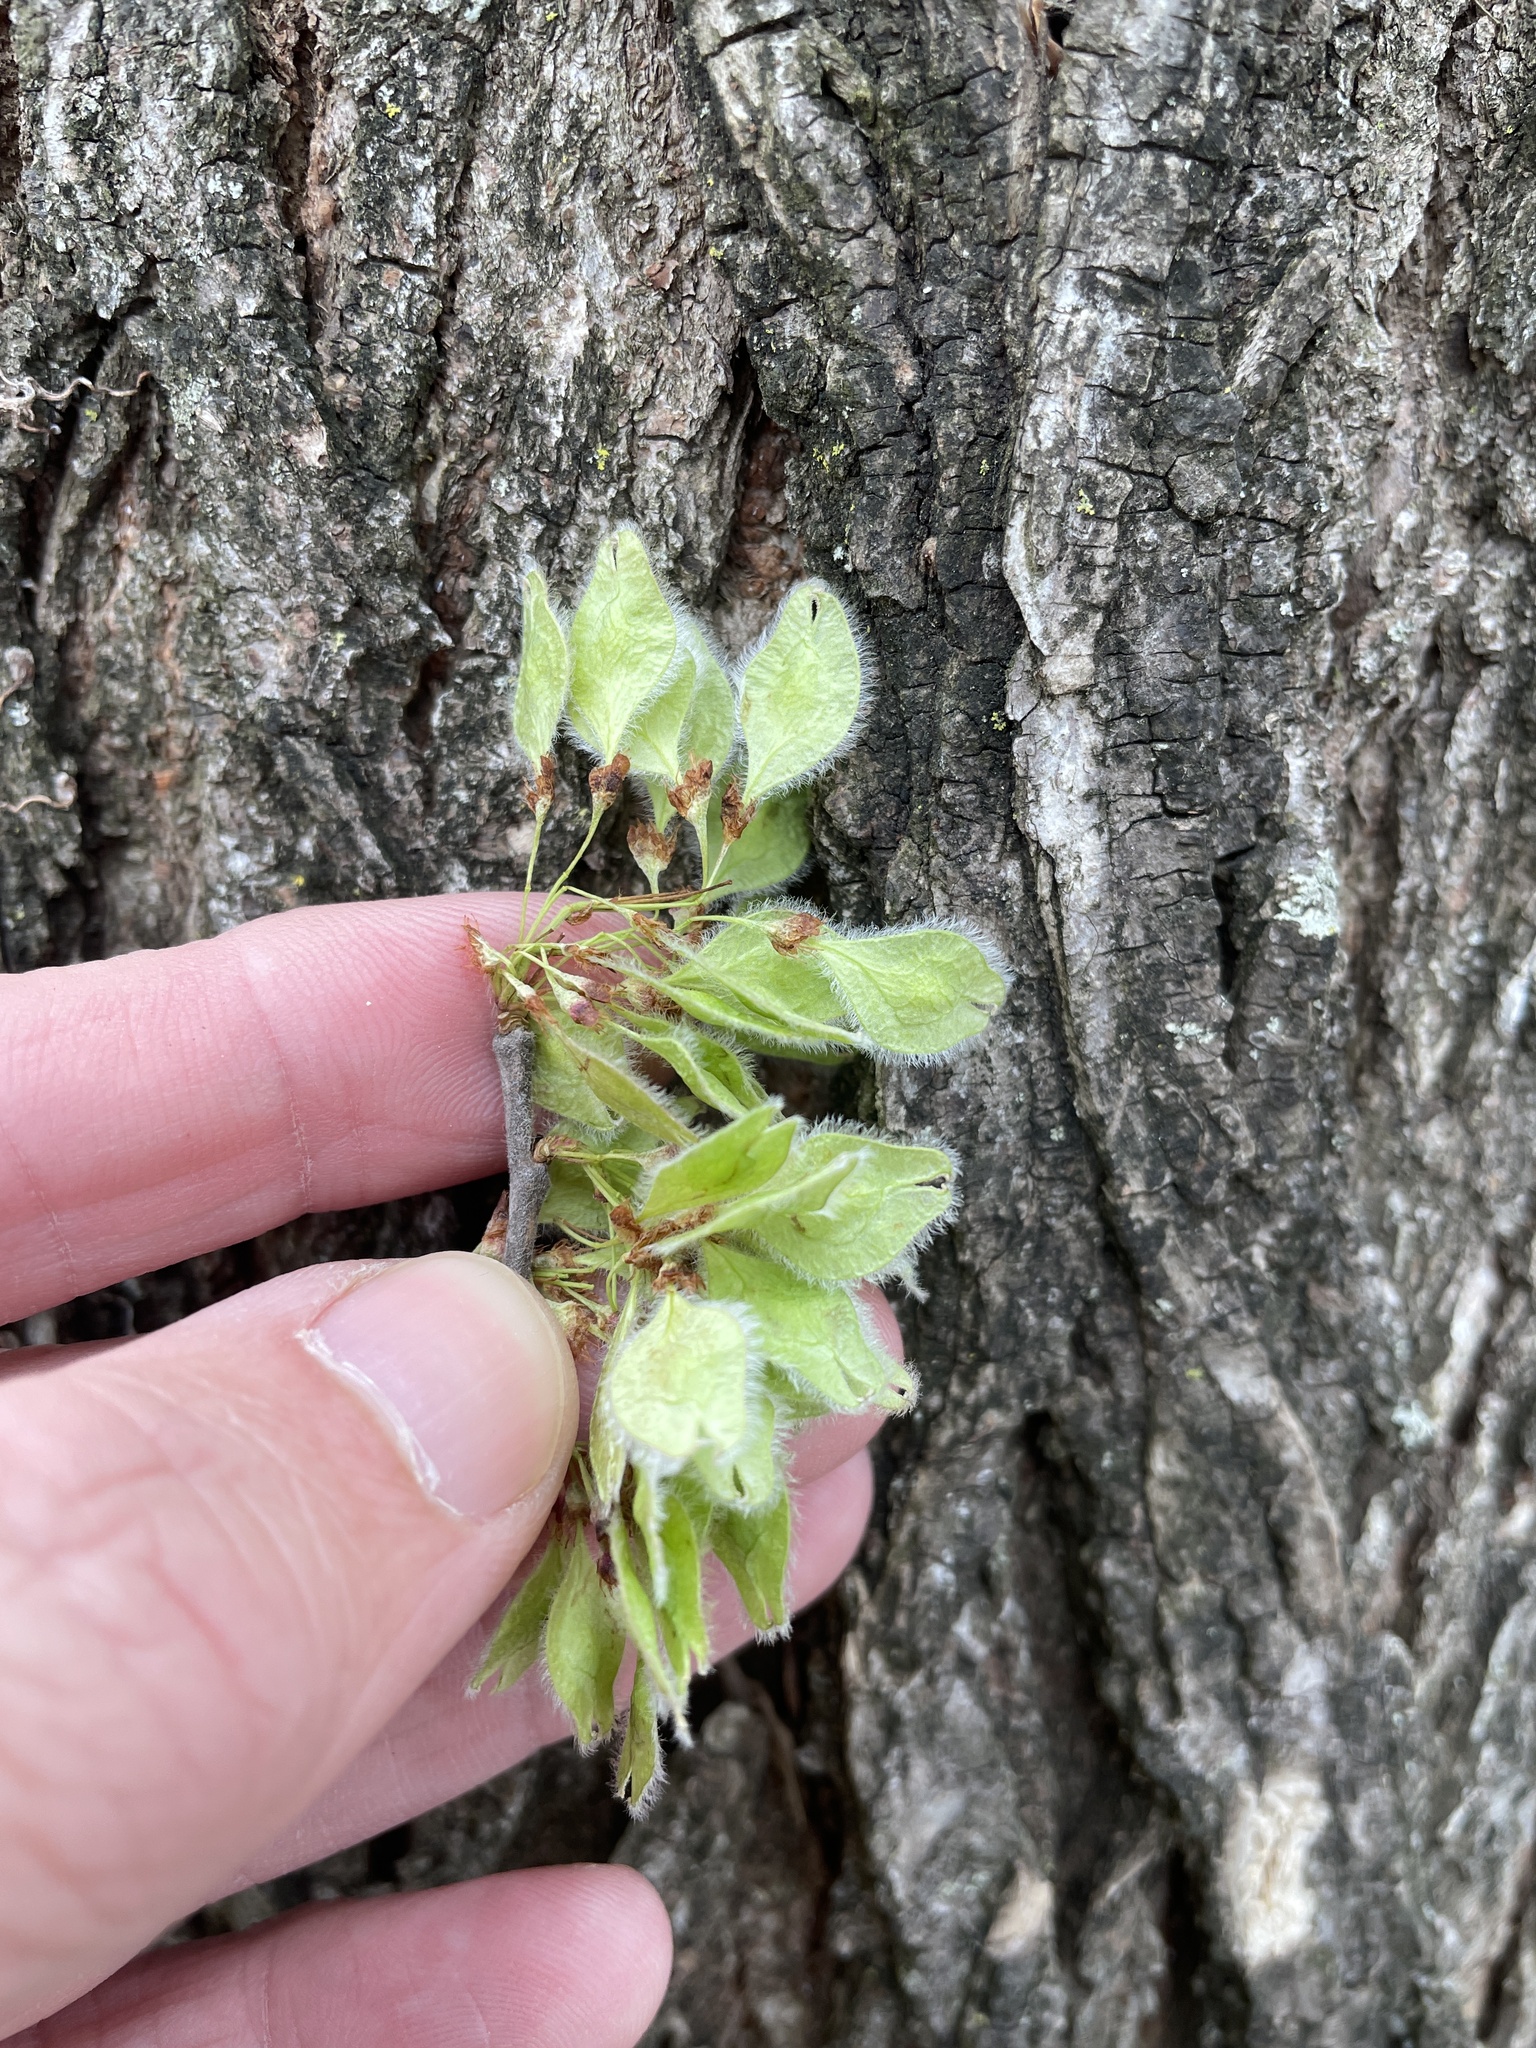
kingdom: Plantae
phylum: Tracheophyta
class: Magnoliopsida
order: Rosales
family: Ulmaceae
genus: Ulmus
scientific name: Ulmus americana
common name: American elm
